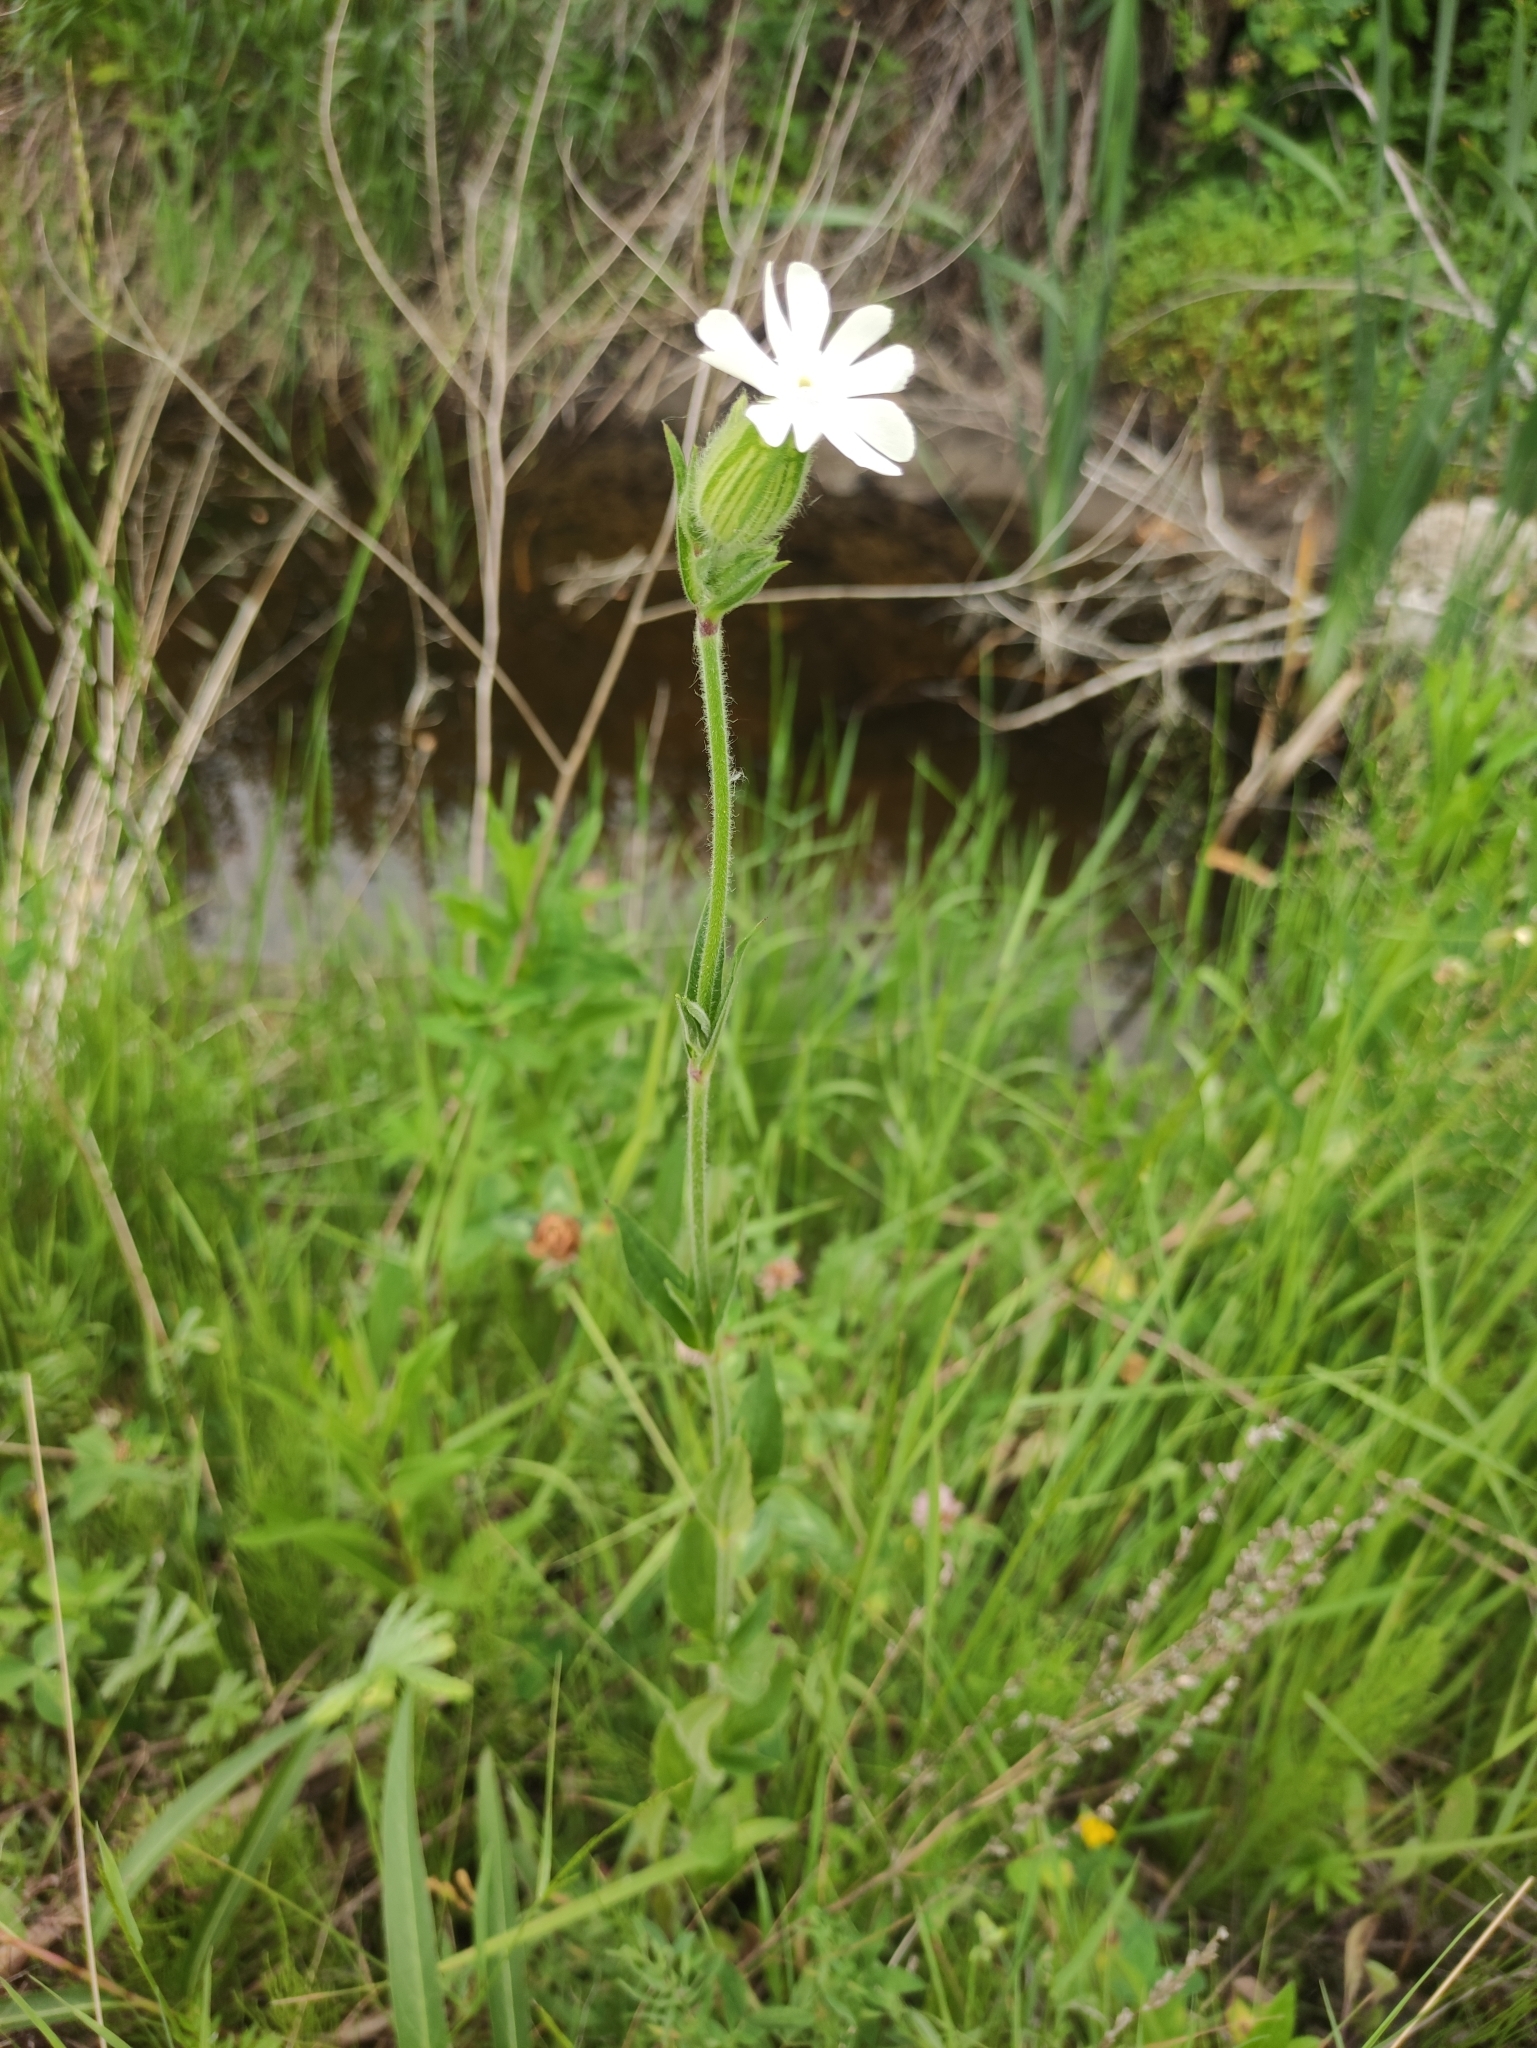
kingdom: Plantae
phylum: Tracheophyta
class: Magnoliopsida
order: Caryophyllales
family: Caryophyllaceae
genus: Silene
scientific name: Silene latifolia
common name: White campion
